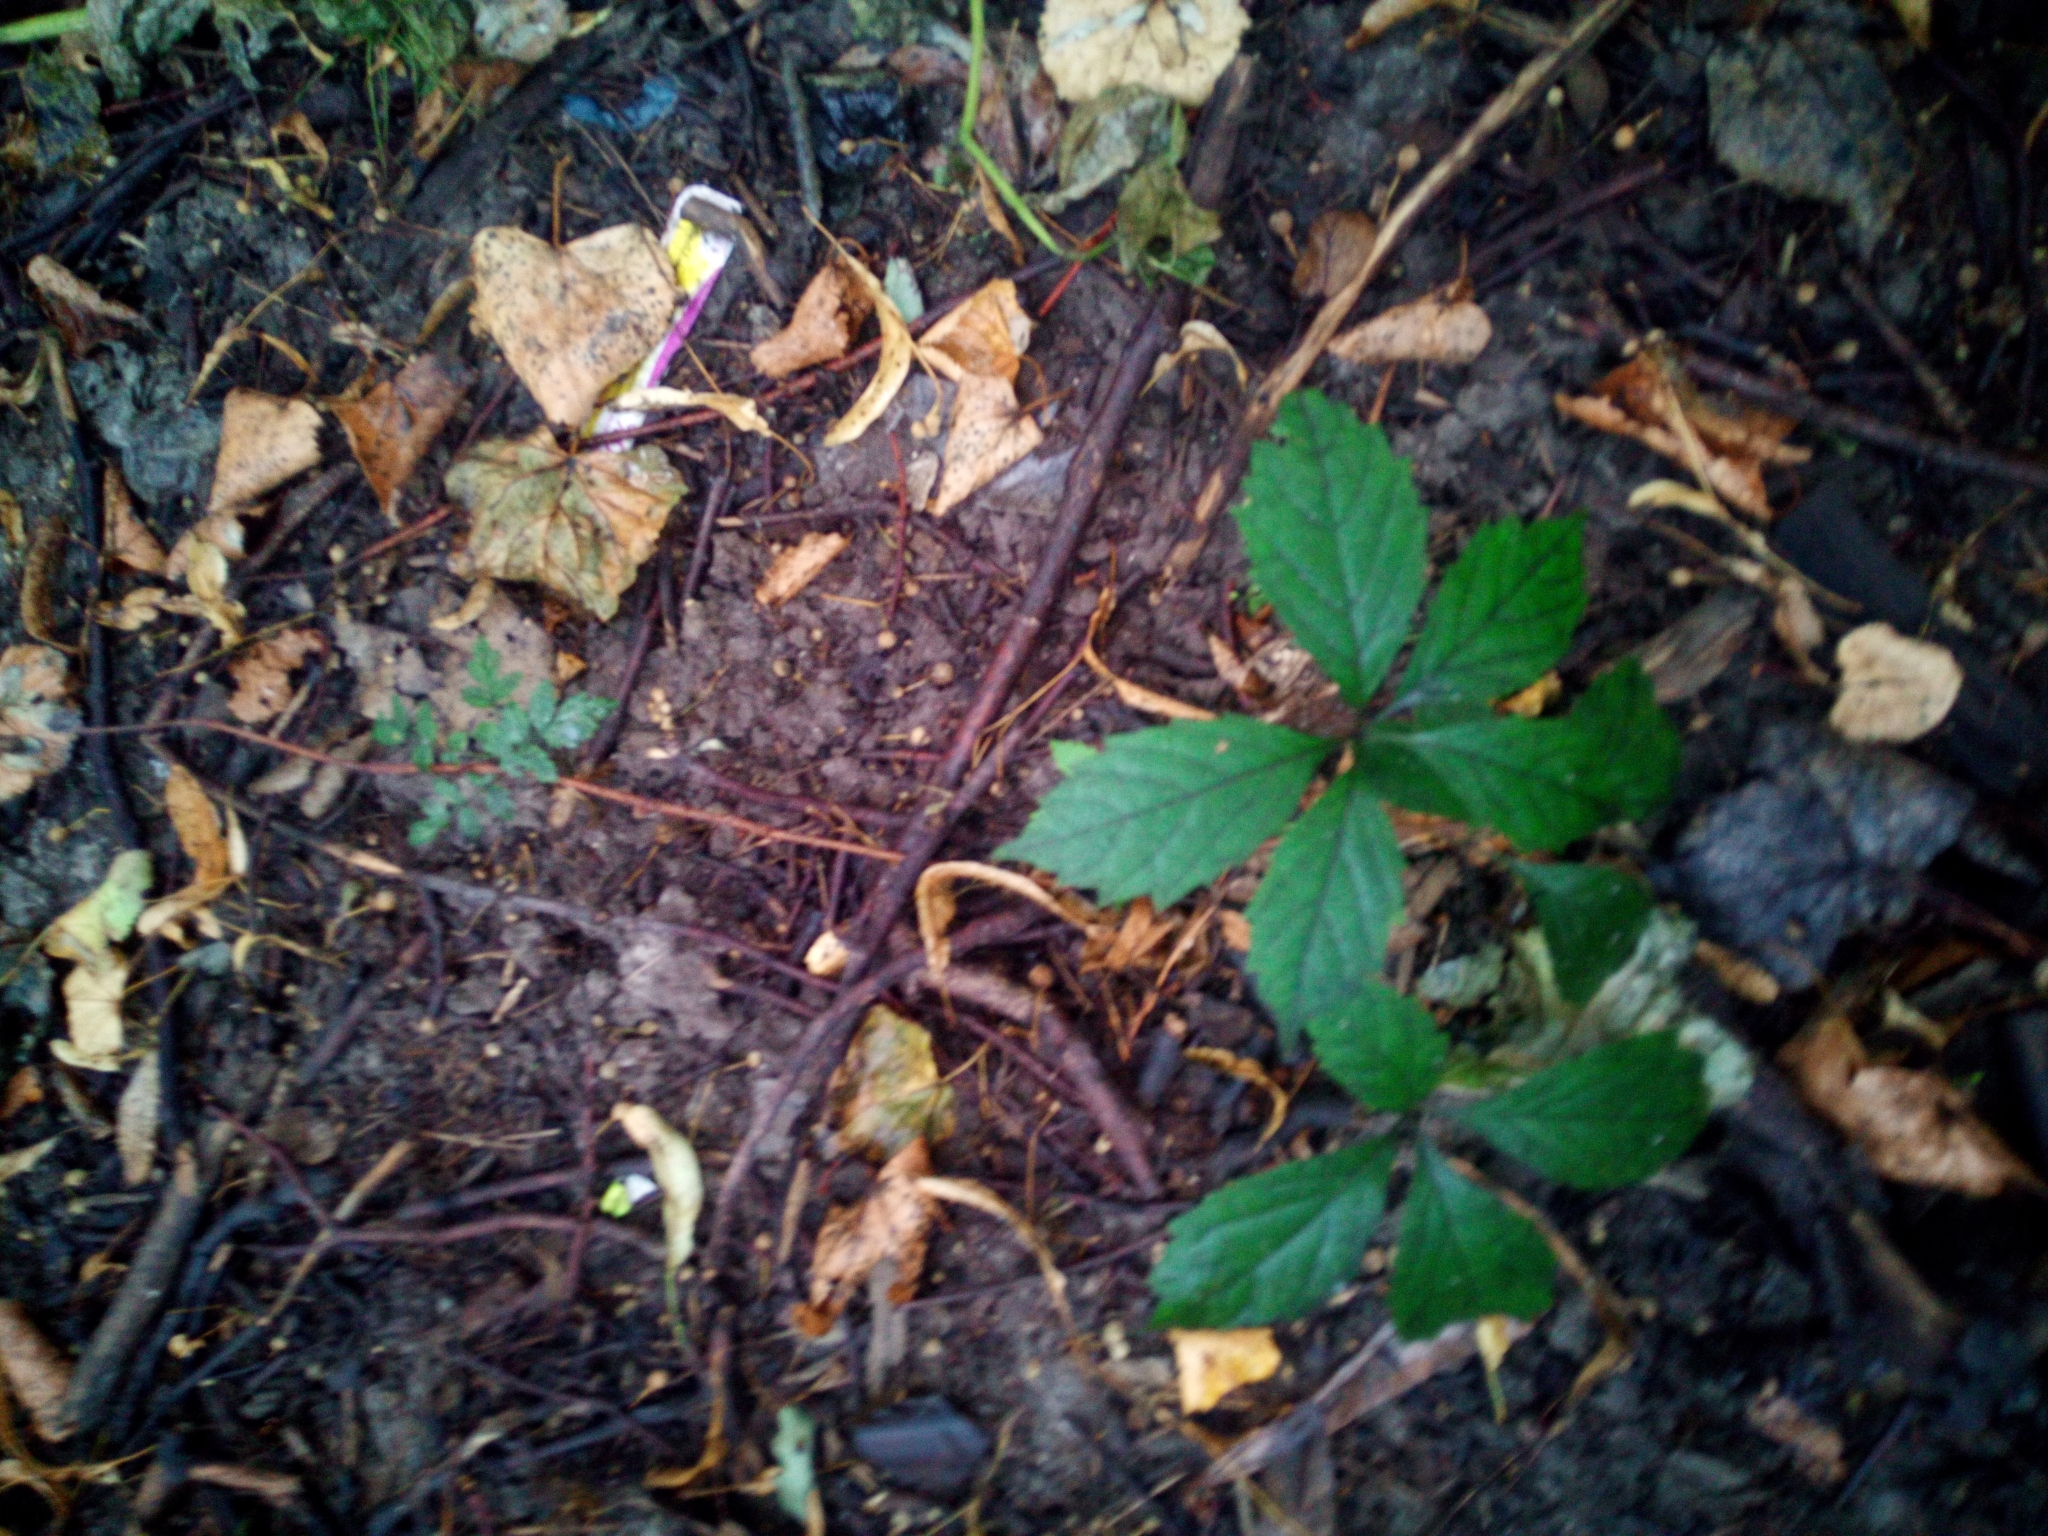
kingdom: Plantae
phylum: Tracheophyta
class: Magnoliopsida
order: Vitales
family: Vitaceae
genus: Parthenocissus
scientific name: Parthenocissus inserta
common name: False virginia-creeper
